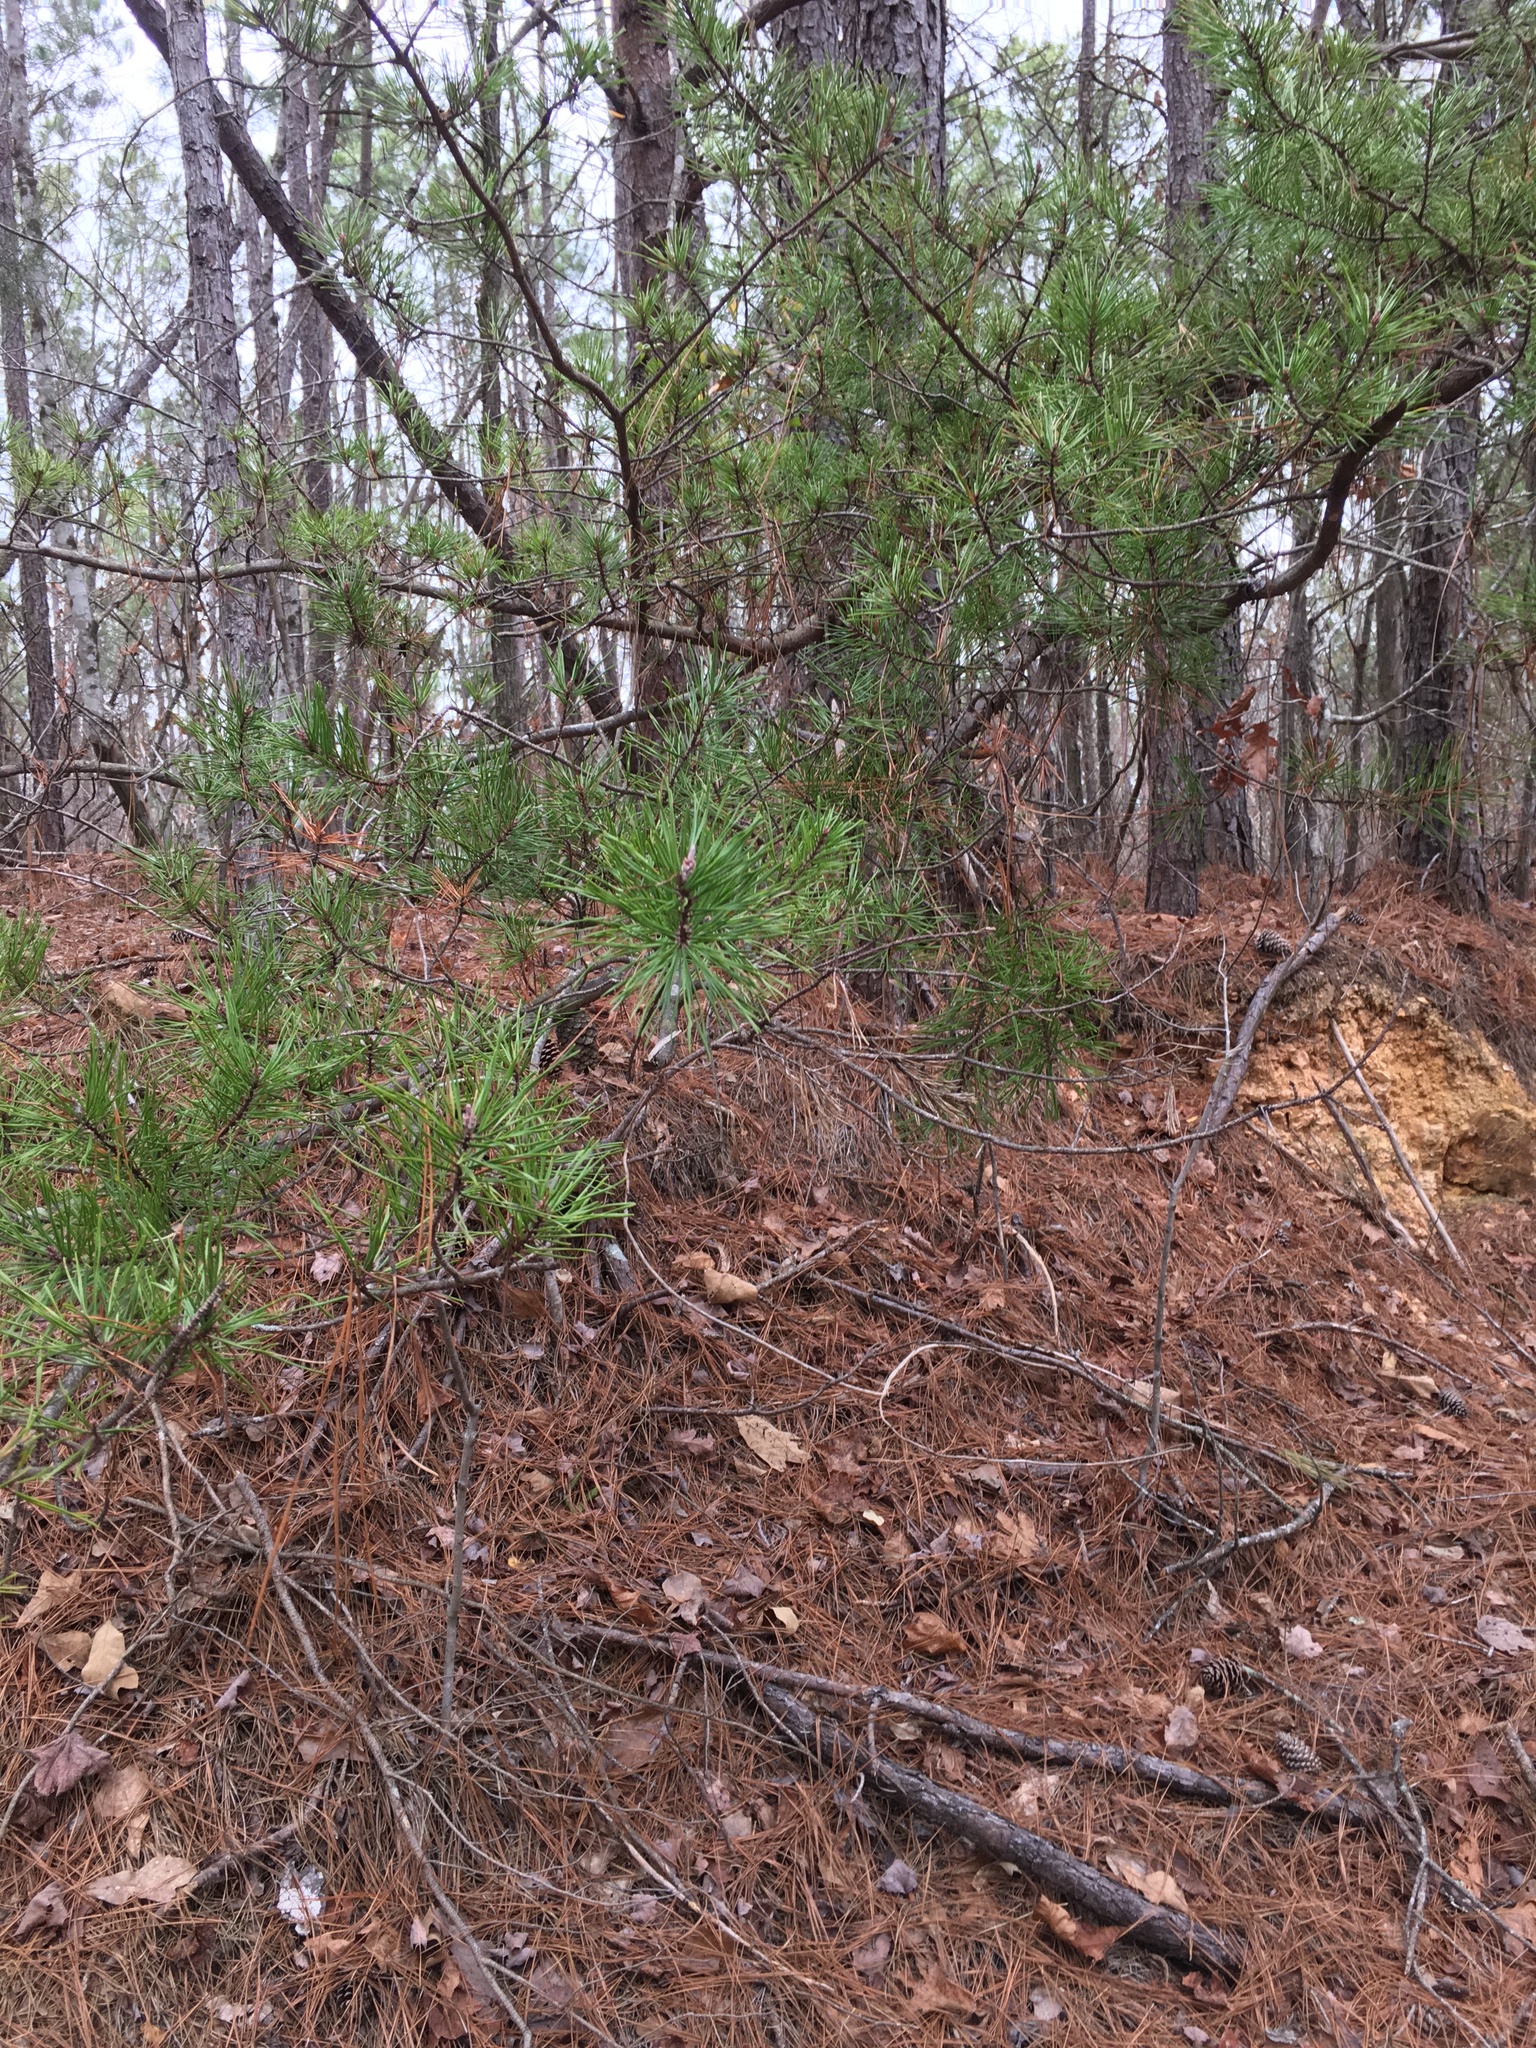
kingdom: Plantae
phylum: Tracheophyta
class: Pinopsida
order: Pinales
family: Pinaceae
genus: Pinus
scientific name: Pinus virginiana
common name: Scrub pine
